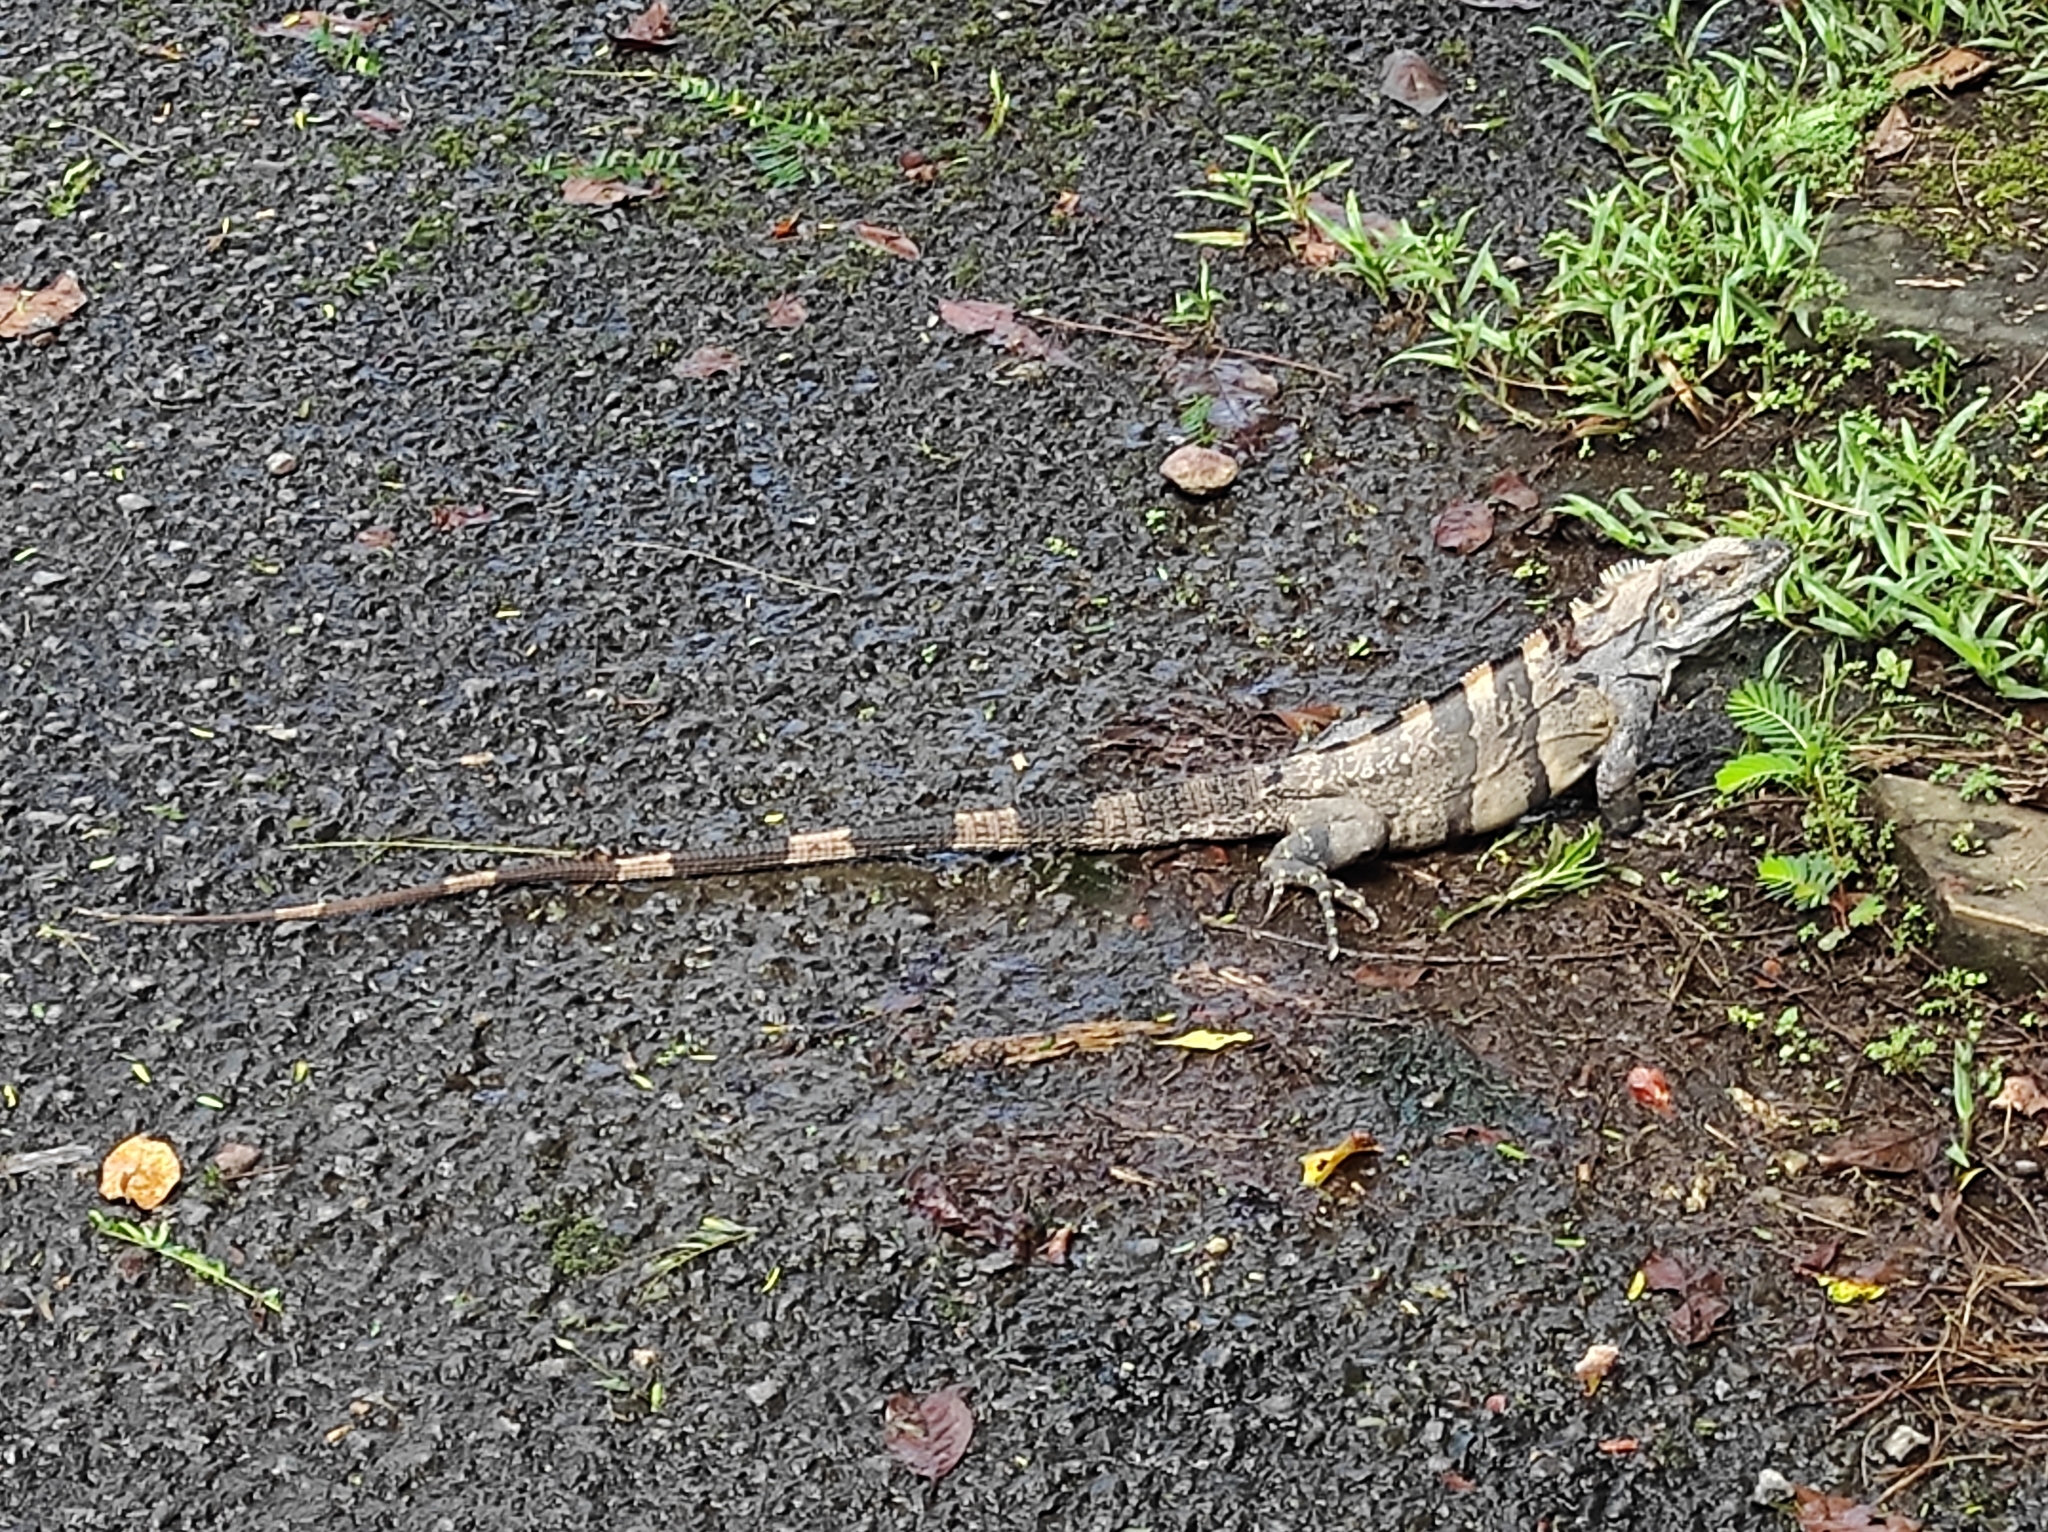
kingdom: Animalia
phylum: Chordata
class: Squamata
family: Iguanidae
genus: Ctenosaura
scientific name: Ctenosaura similis
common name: Black spiny-tailed iguana
